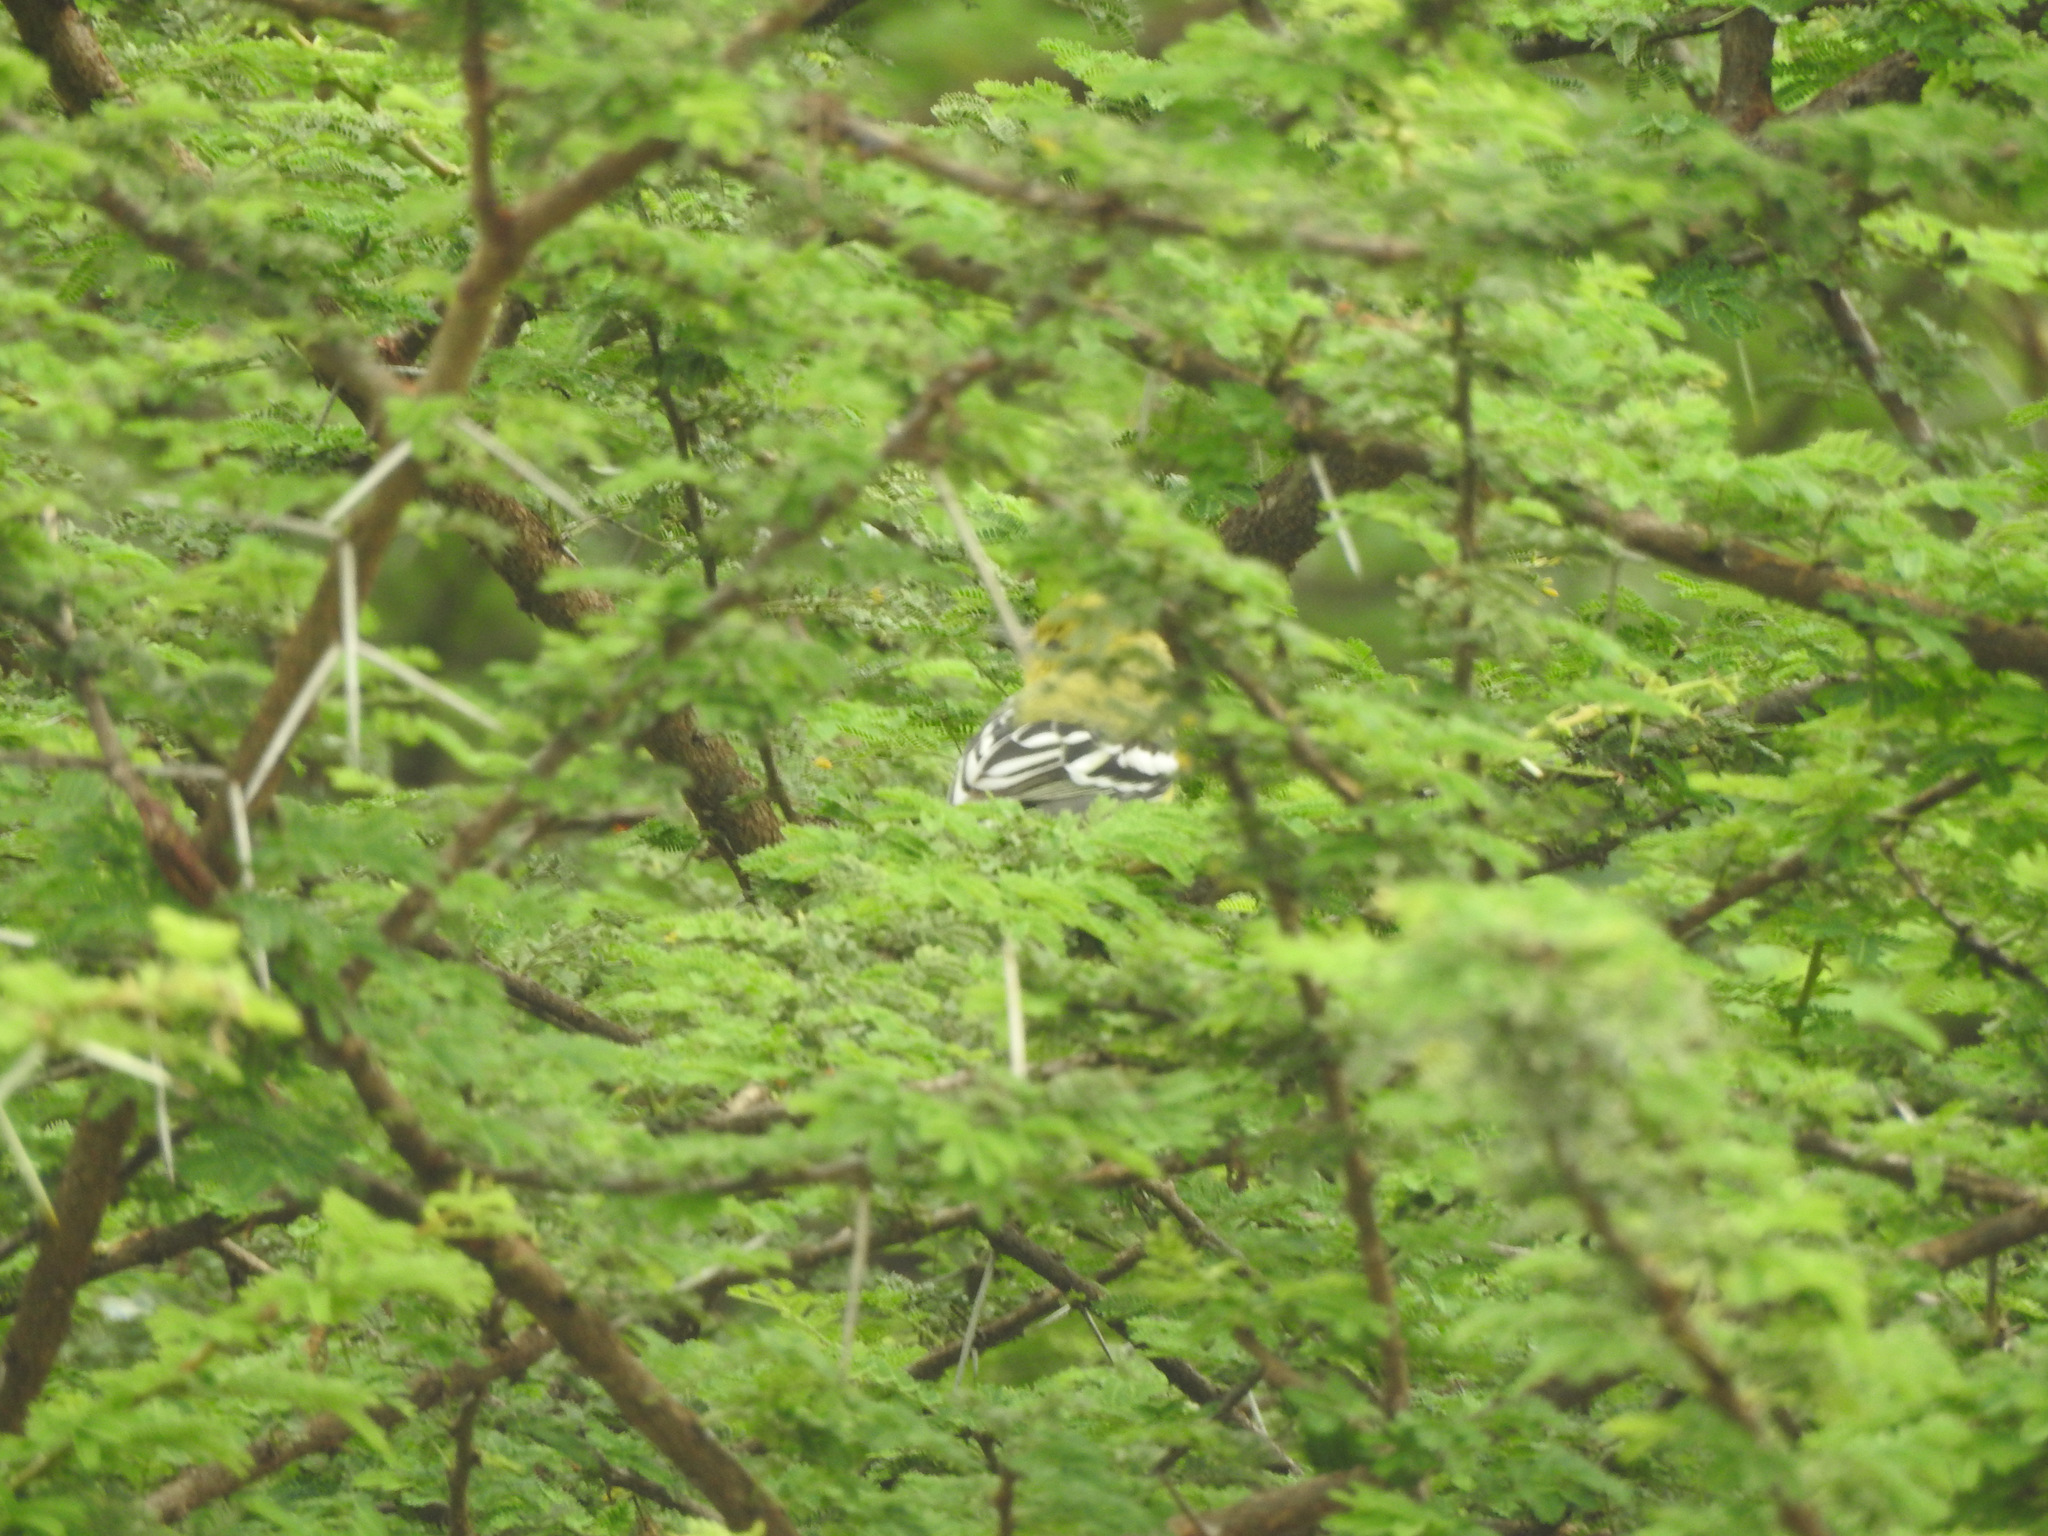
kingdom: Animalia
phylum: Chordata
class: Aves
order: Passeriformes
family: Aegithinidae
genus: Aegithina
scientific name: Aegithina nigrolutea
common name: Marshall's iora
